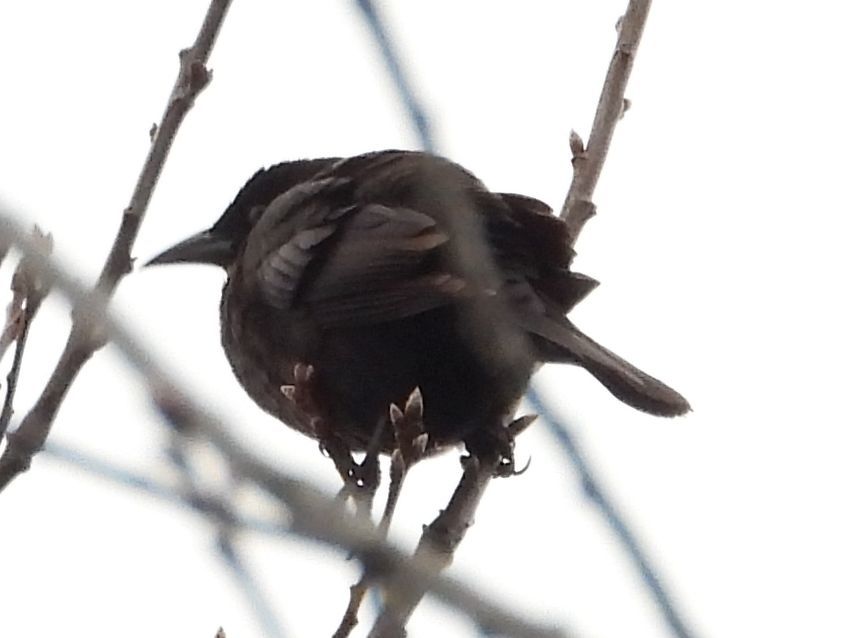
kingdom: Animalia
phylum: Chordata
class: Aves
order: Passeriformes
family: Icteridae
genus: Quiscalus
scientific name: Quiscalus quiscula
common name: Common grackle
